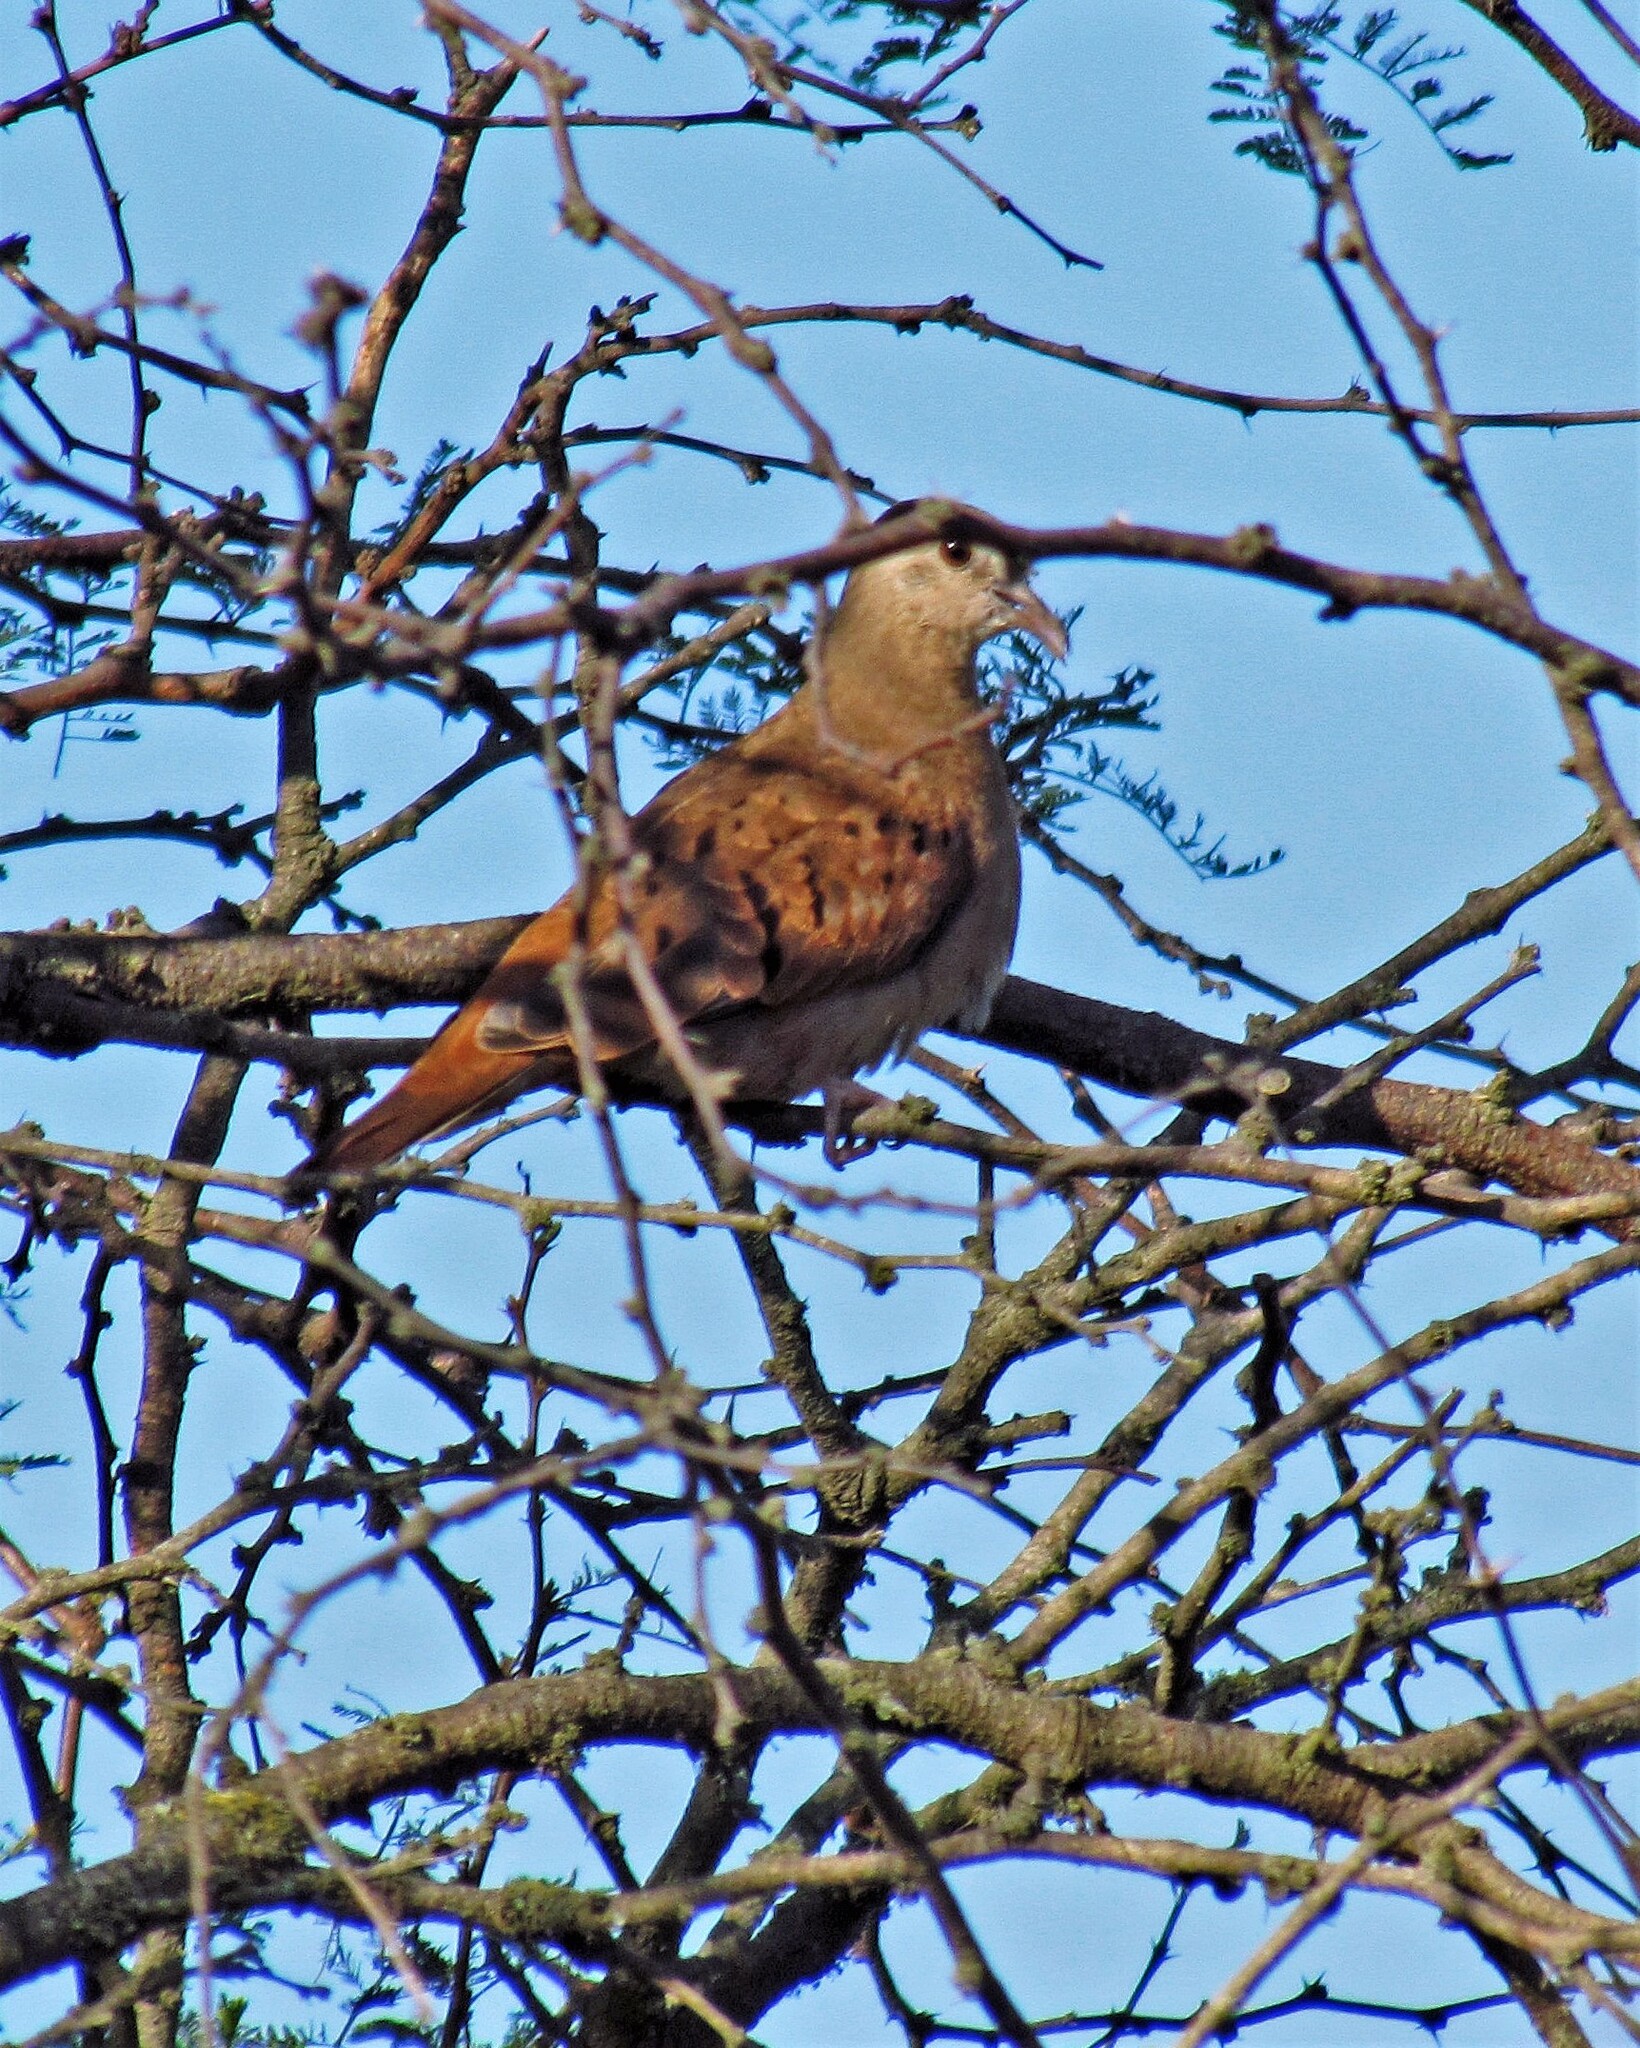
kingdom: Animalia
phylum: Chordata
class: Aves
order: Columbiformes
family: Columbidae
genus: Columbina
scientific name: Columbina talpacoti
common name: Ruddy ground dove
